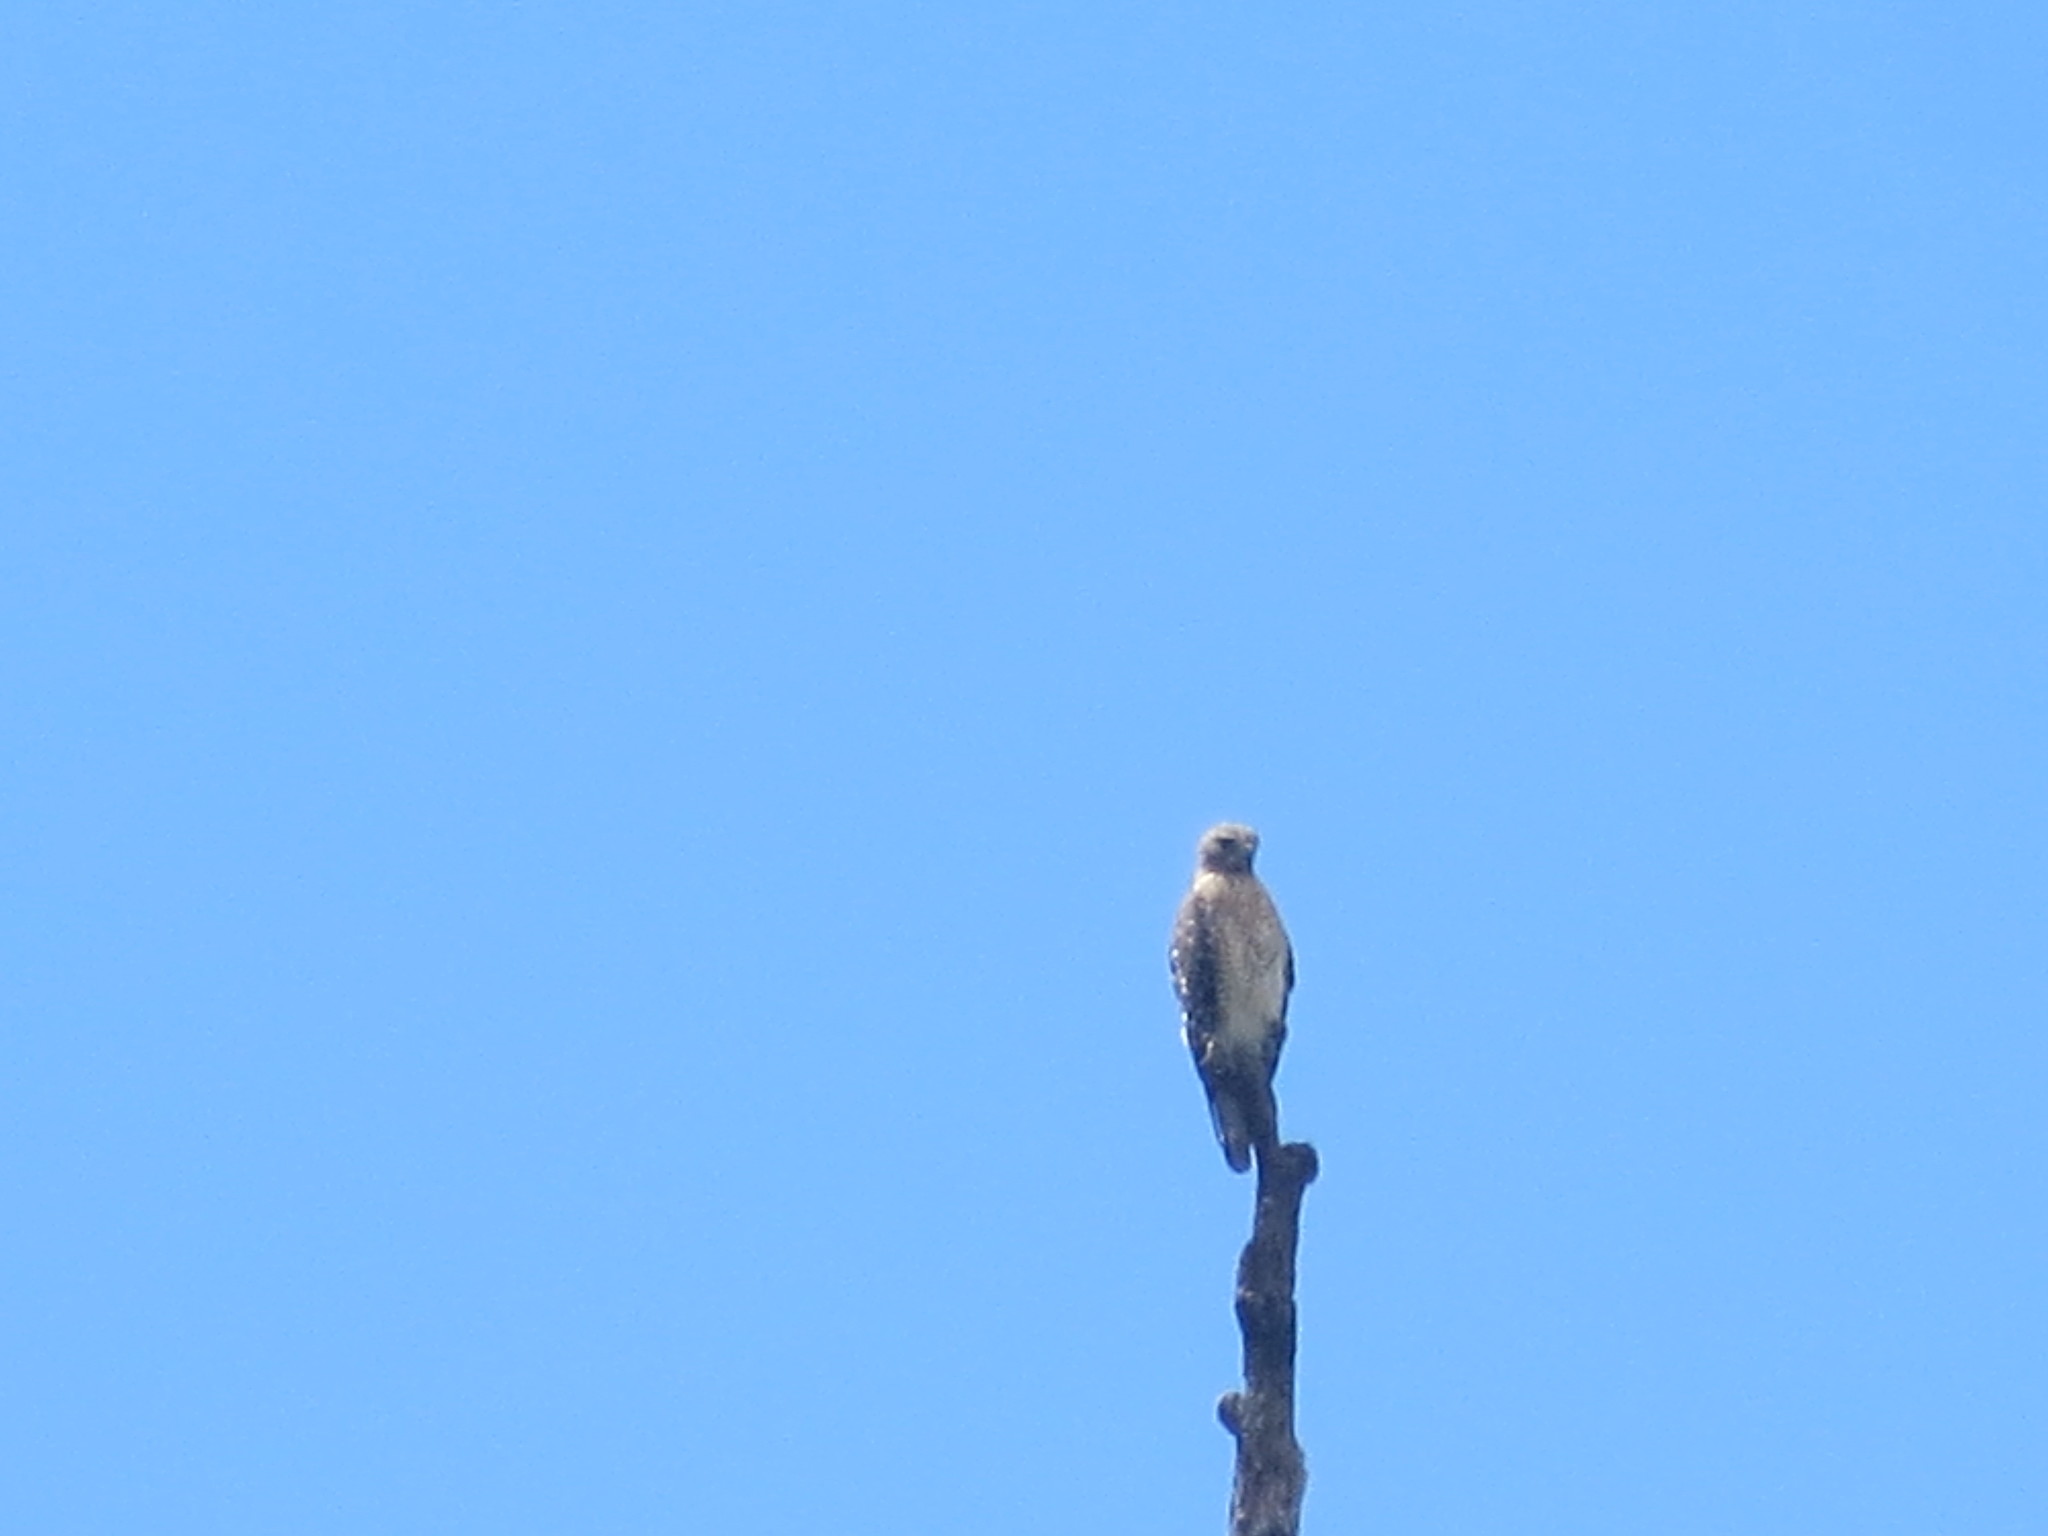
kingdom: Animalia
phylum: Chordata
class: Aves
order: Accipitriformes
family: Accipitridae
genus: Buteo
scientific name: Buteo lineatus
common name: Red-shouldered hawk
